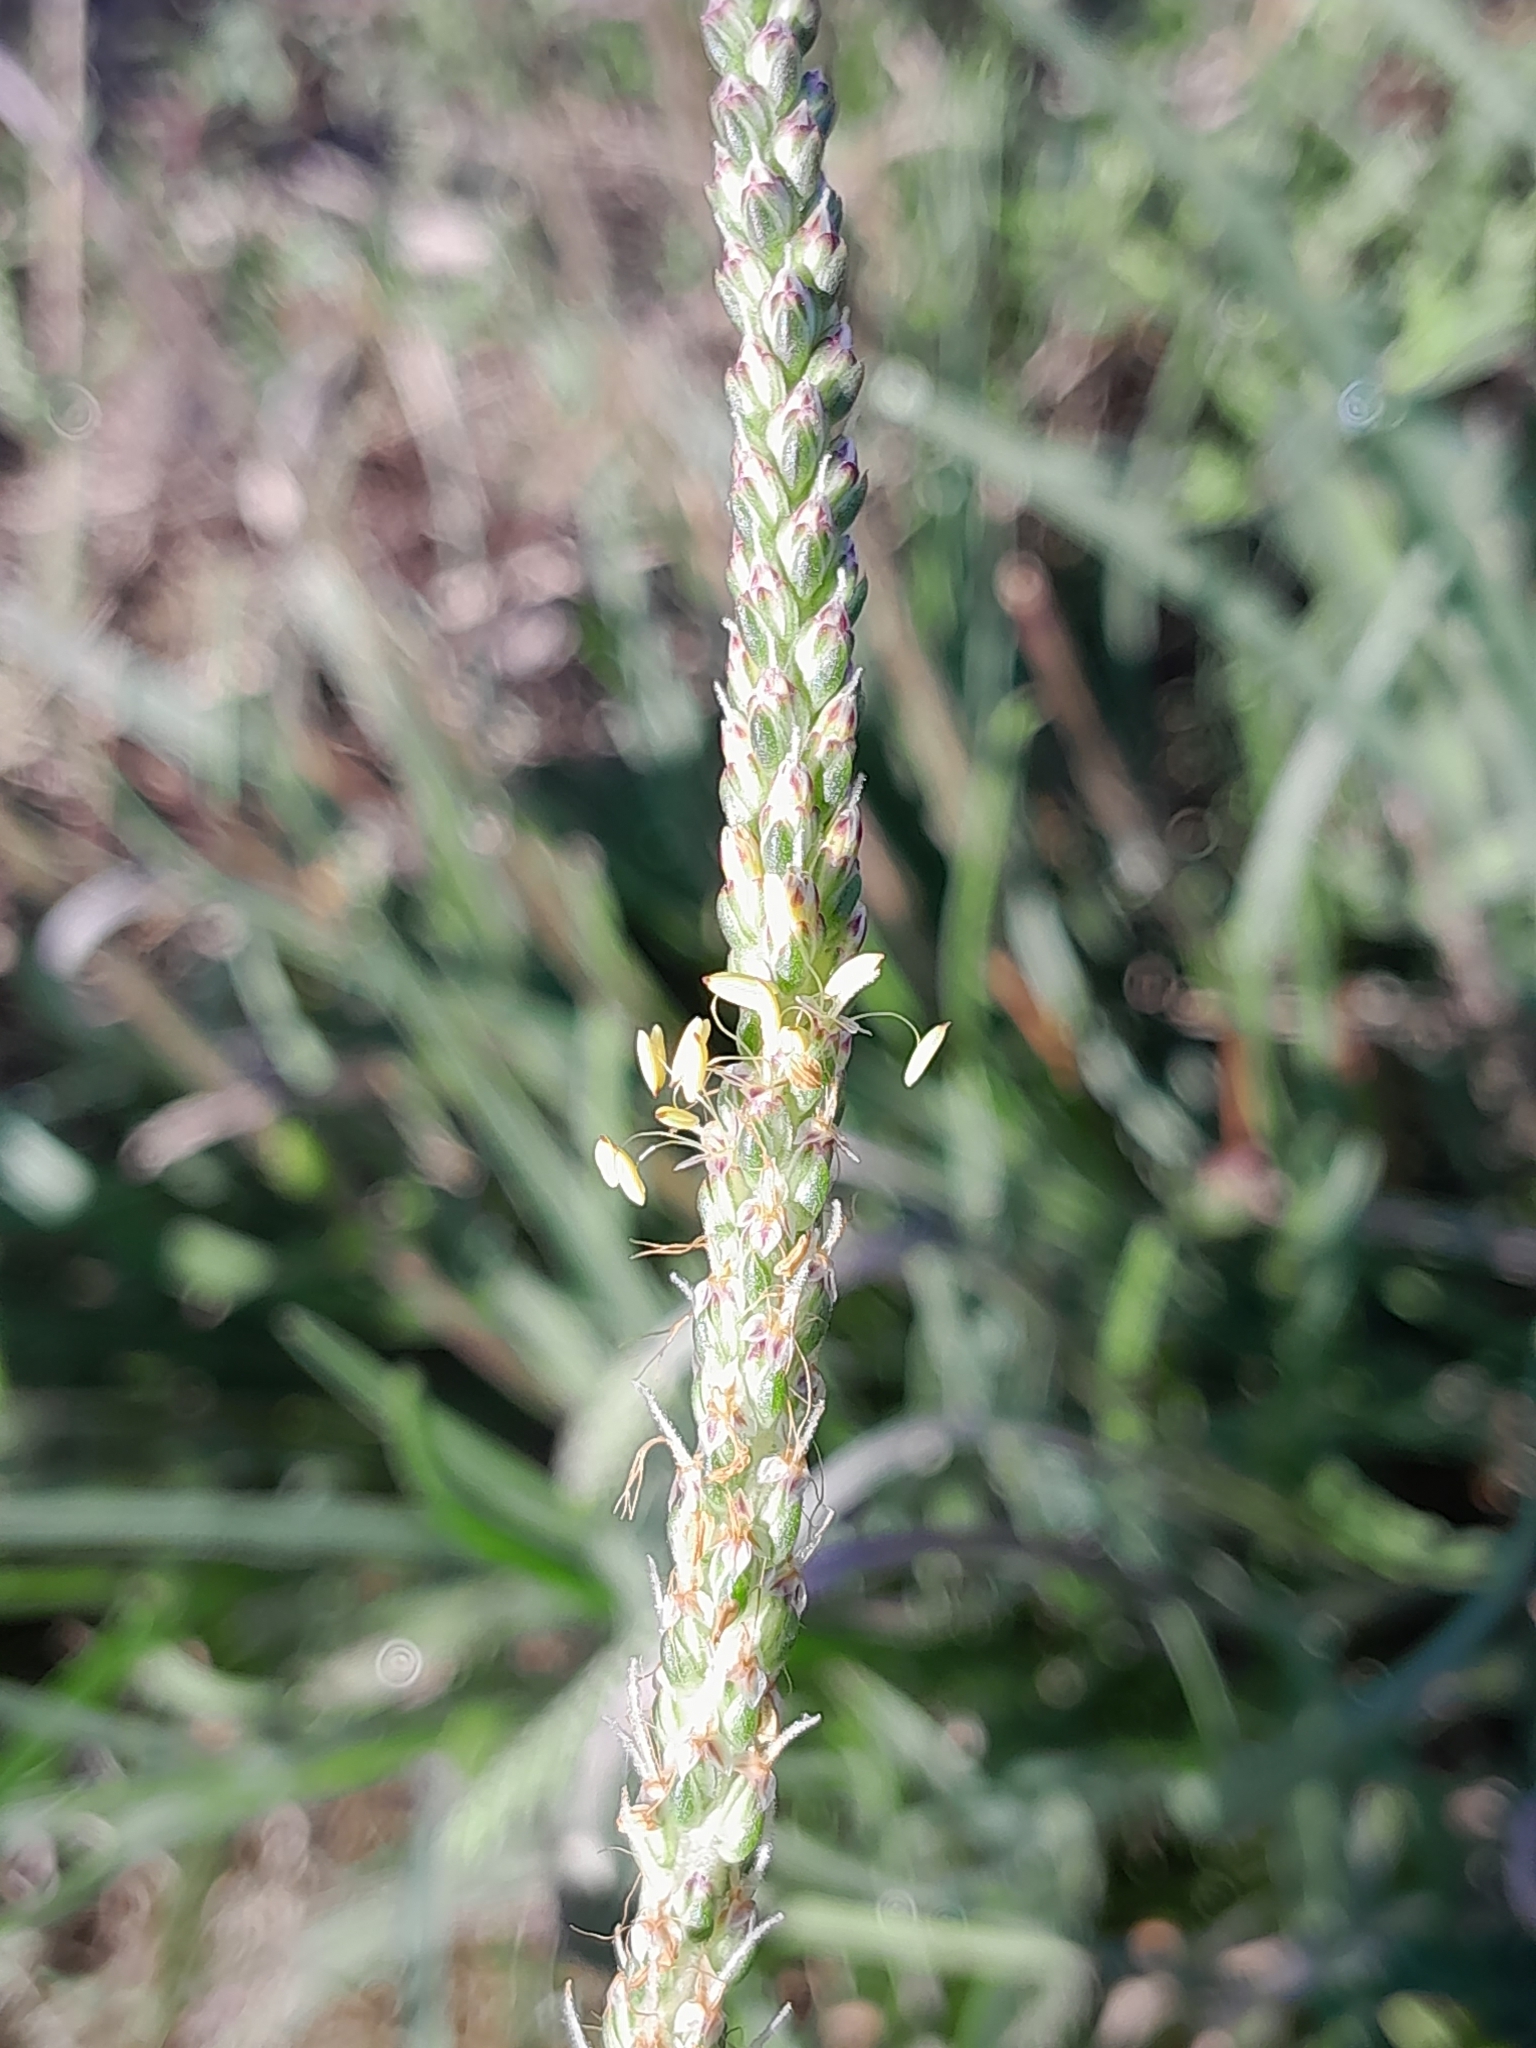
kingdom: Plantae
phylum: Tracheophyta
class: Magnoliopsida
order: Lamiales
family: Plantaginaceae
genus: Plantago
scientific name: Plantago maritima
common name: Sea plantain
